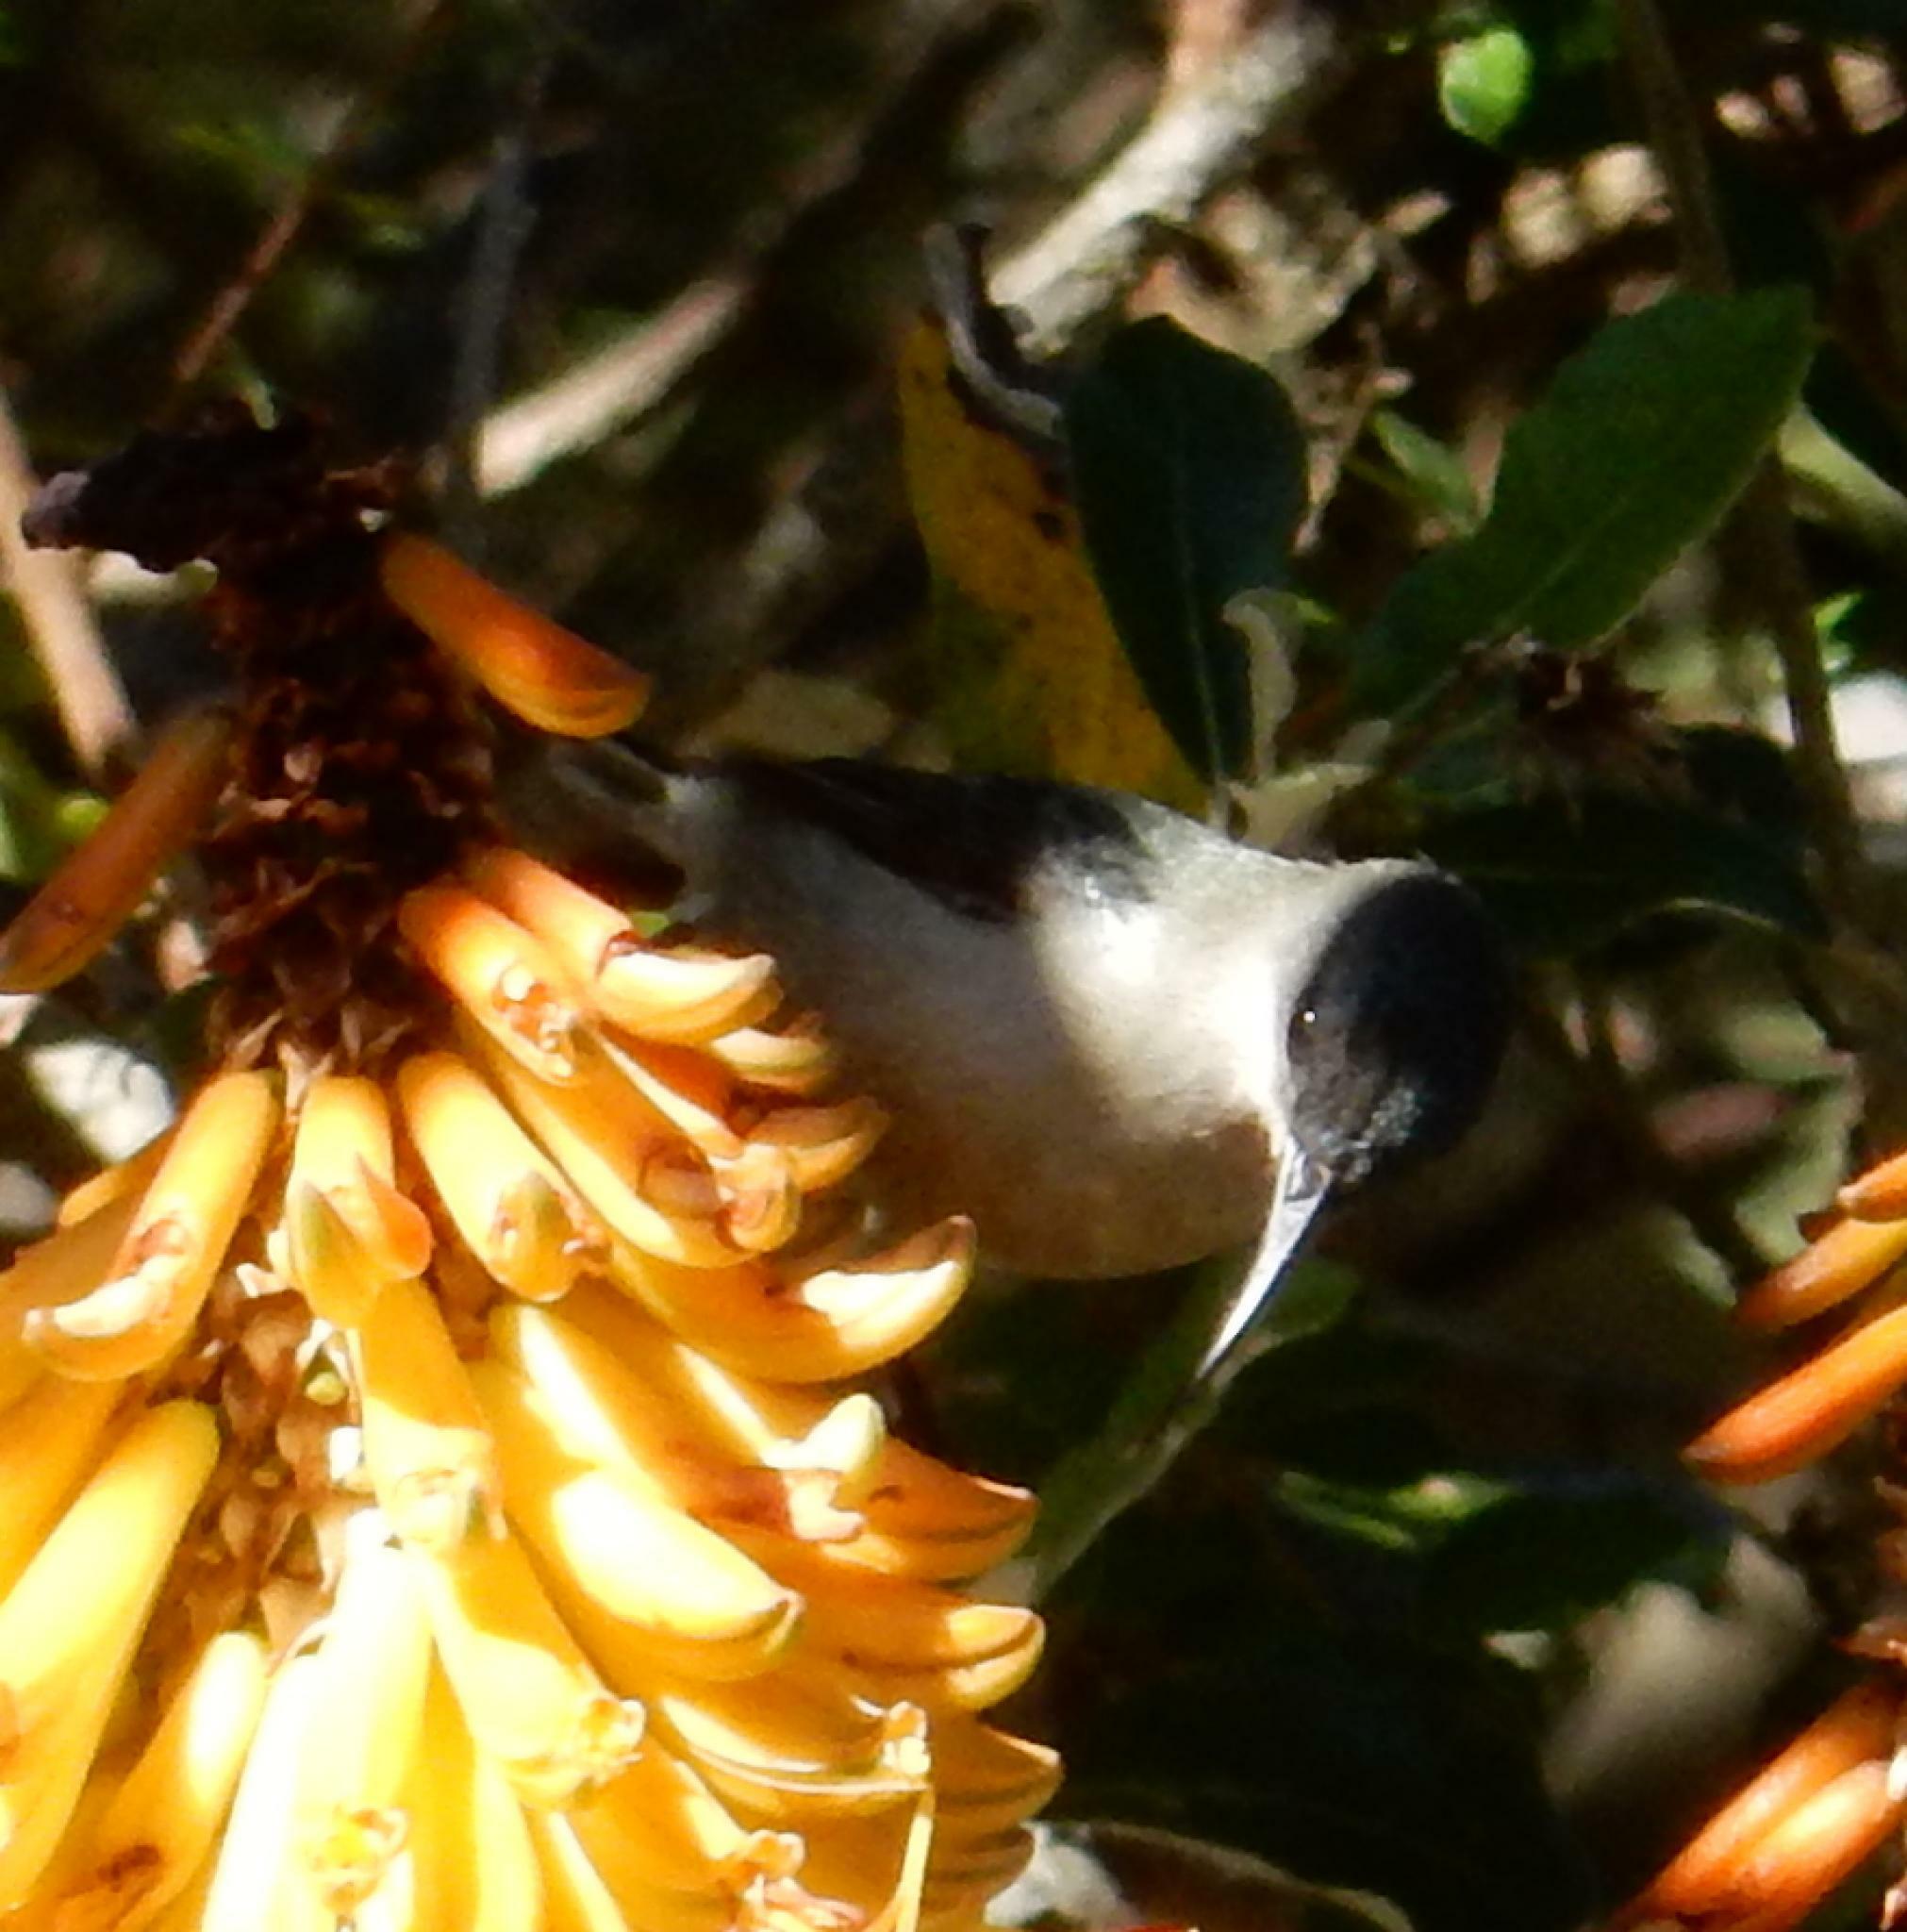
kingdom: Animalia
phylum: Chordata
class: Aves
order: Passeriformes
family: Nectariniidae
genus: Cyanomitra
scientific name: Cyanomitra veroxii
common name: Grey sunbird
